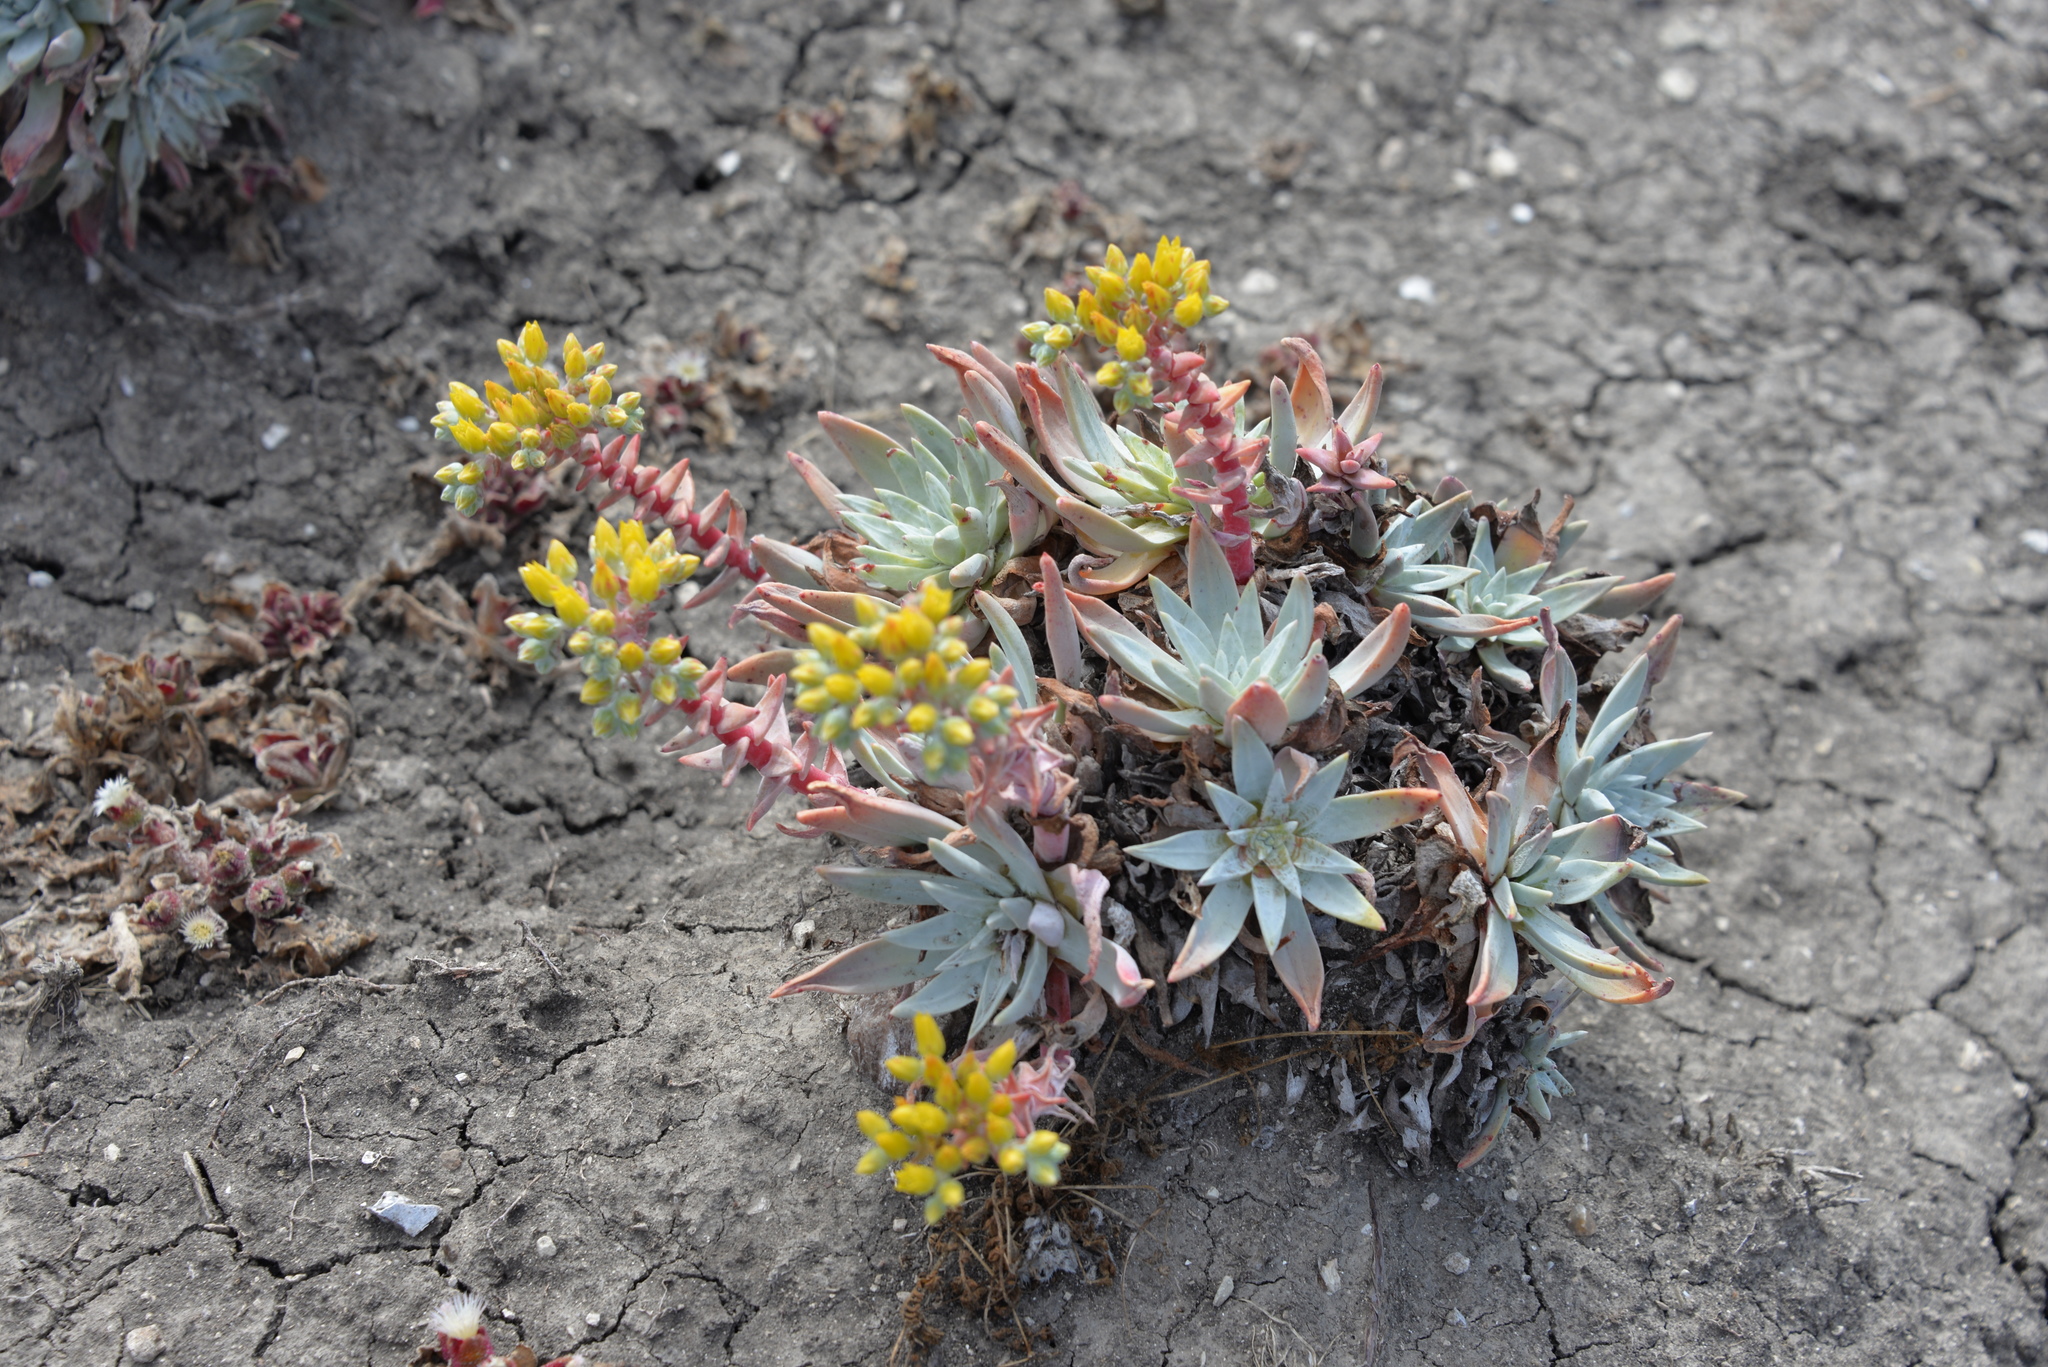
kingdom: Plantae
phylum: Tracheophyta
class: Magnoliopsida
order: Saxifragales
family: Crassulaceae
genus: Dudleya
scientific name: Dudleya greenei
